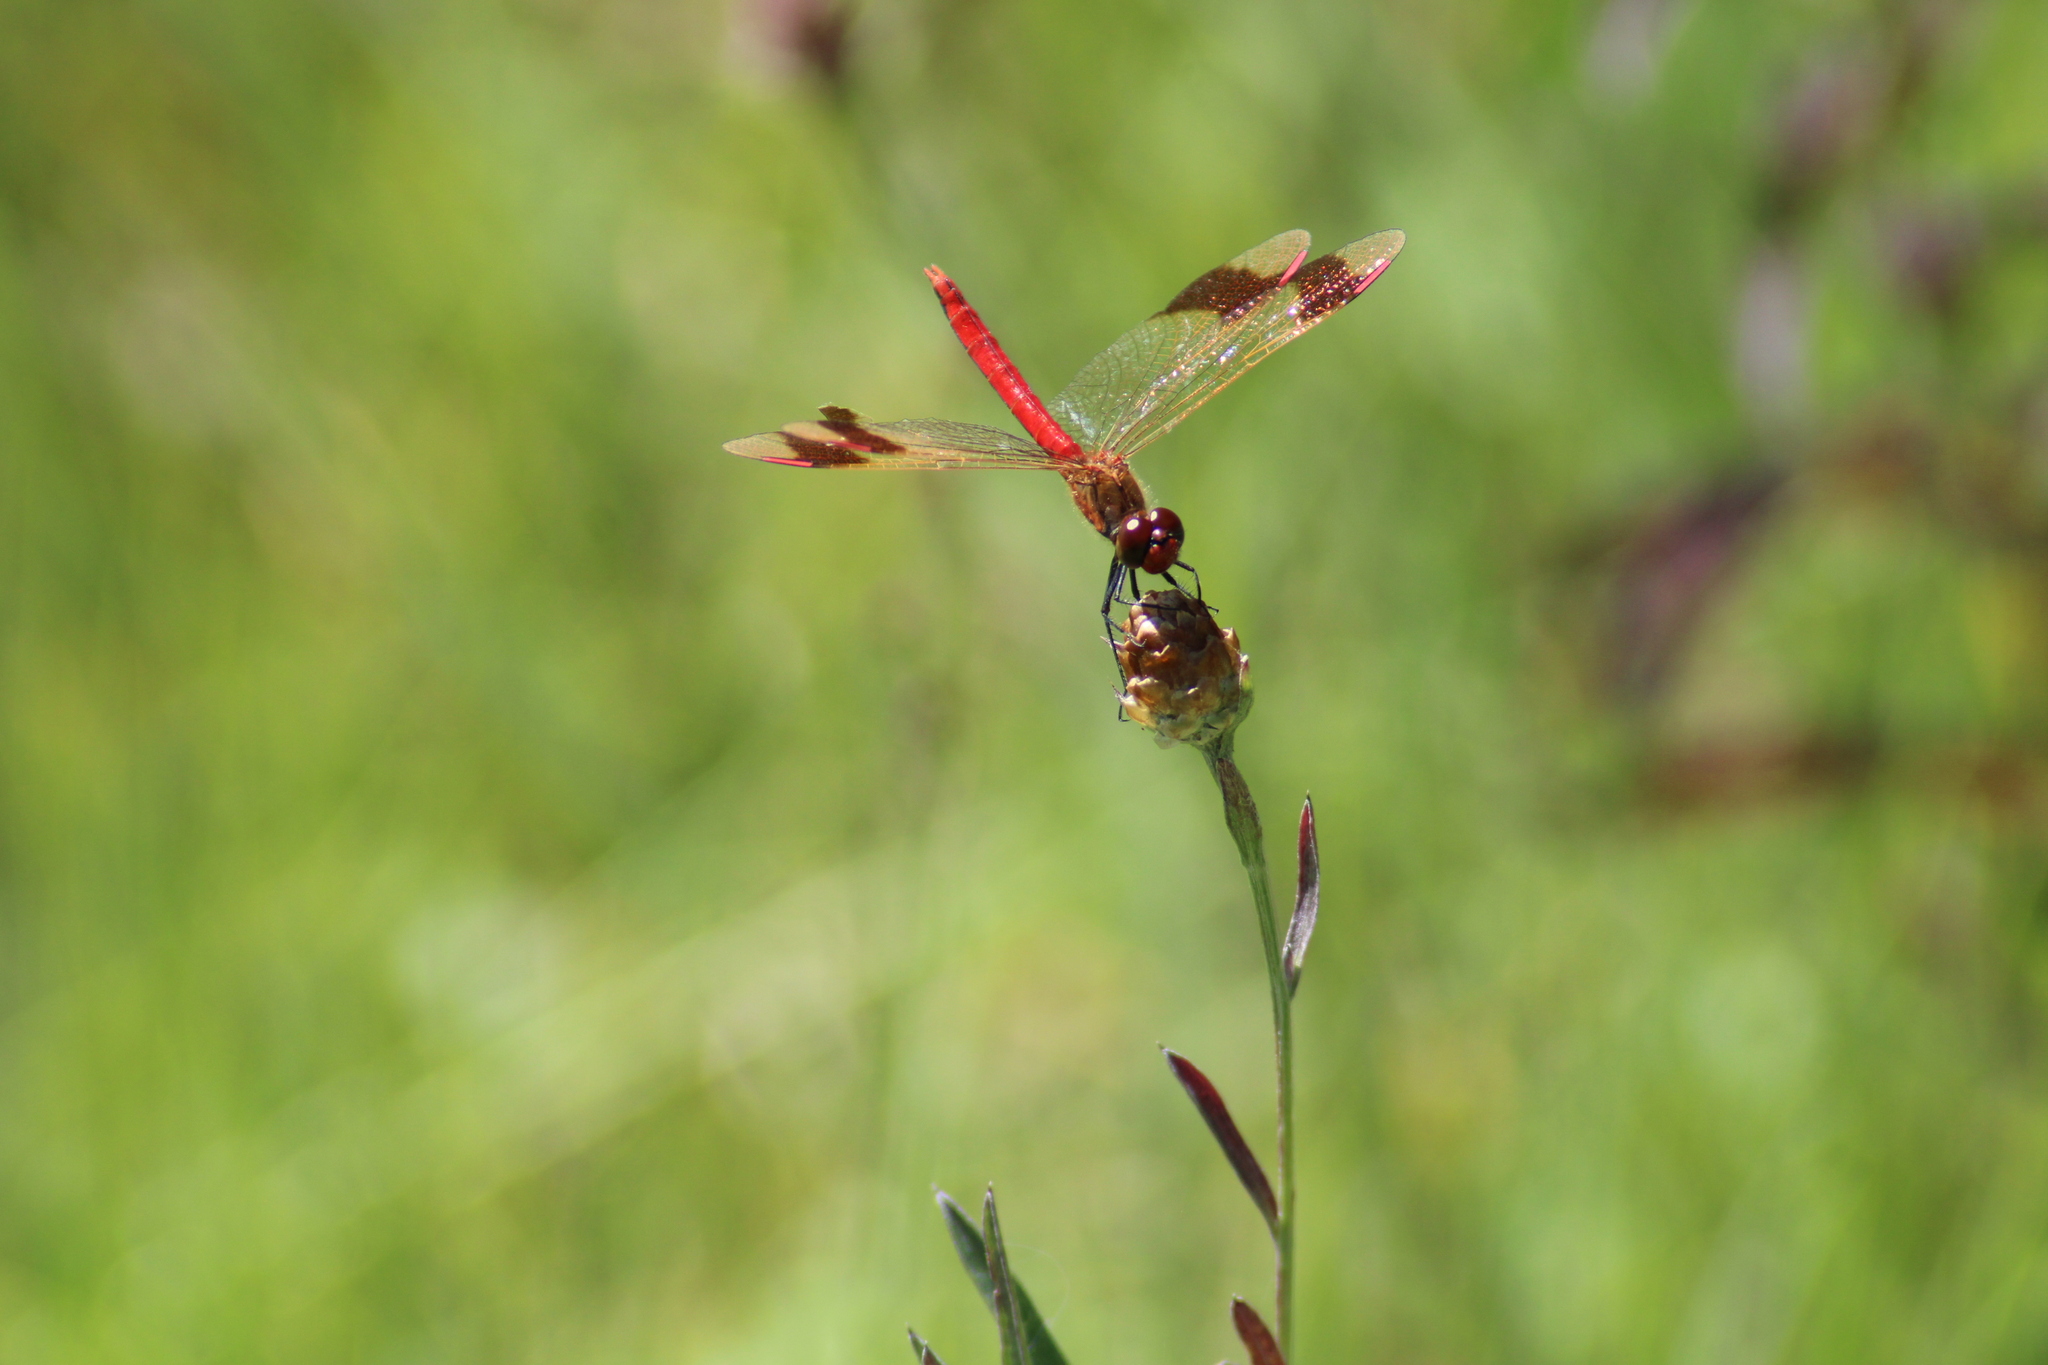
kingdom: Animalia
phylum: Arthropoda
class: Insecta
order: Odonata
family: Libellulidae
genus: Sympetrum
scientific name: Sympetrum pedemontanum
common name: Banded darter
